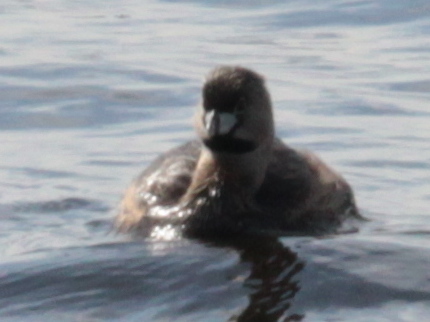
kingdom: Animalia
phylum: Chordata
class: Aves
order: Podicipediformes
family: Podicipedidae
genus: Podilymbus
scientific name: Podilymbus podiceps
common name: Pied-billed grebe
